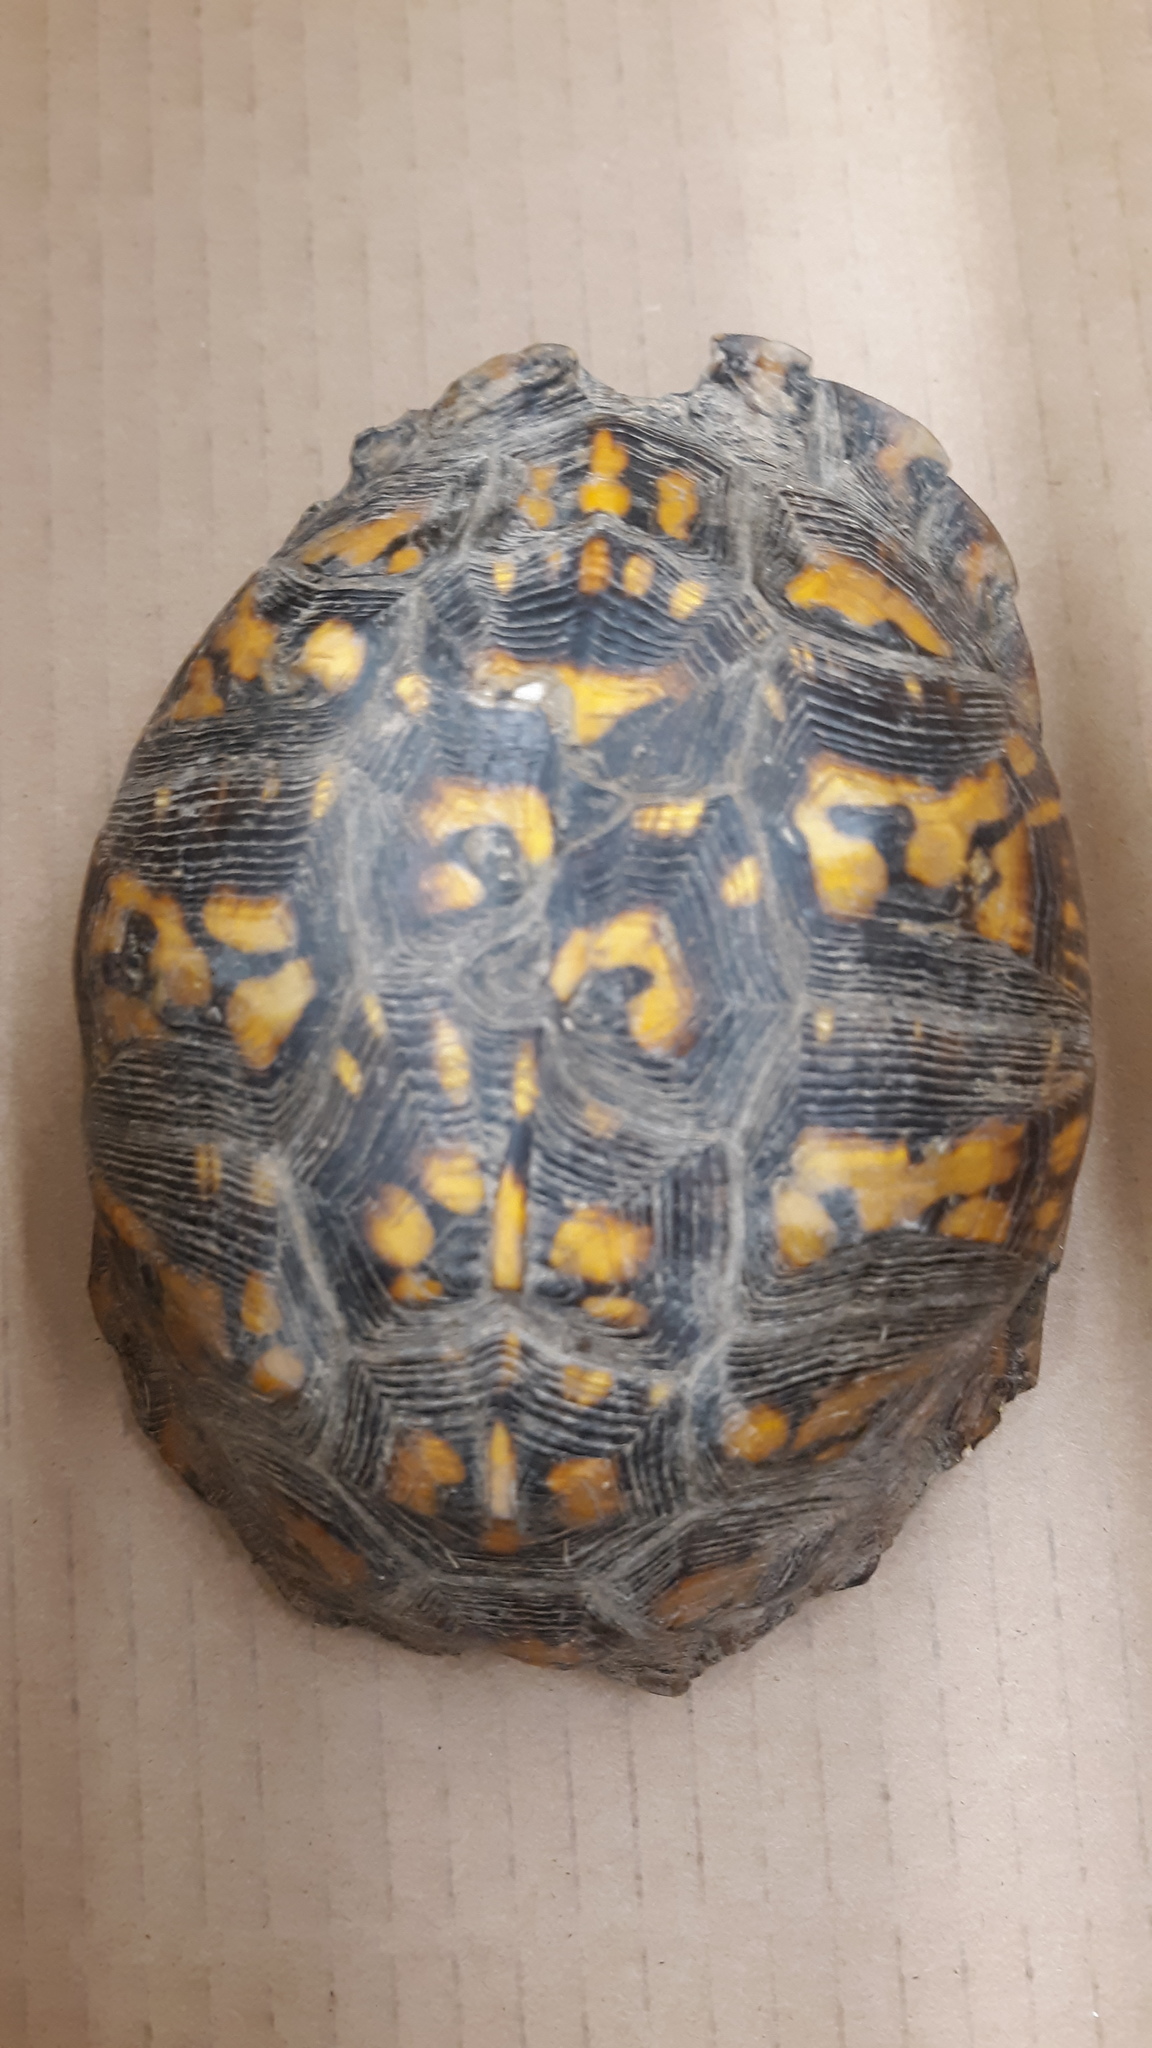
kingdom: Animalia
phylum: Chordata
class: Testudines
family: Emydidae
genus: Terrapene
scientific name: Terrapene carolina
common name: Common box turtle
